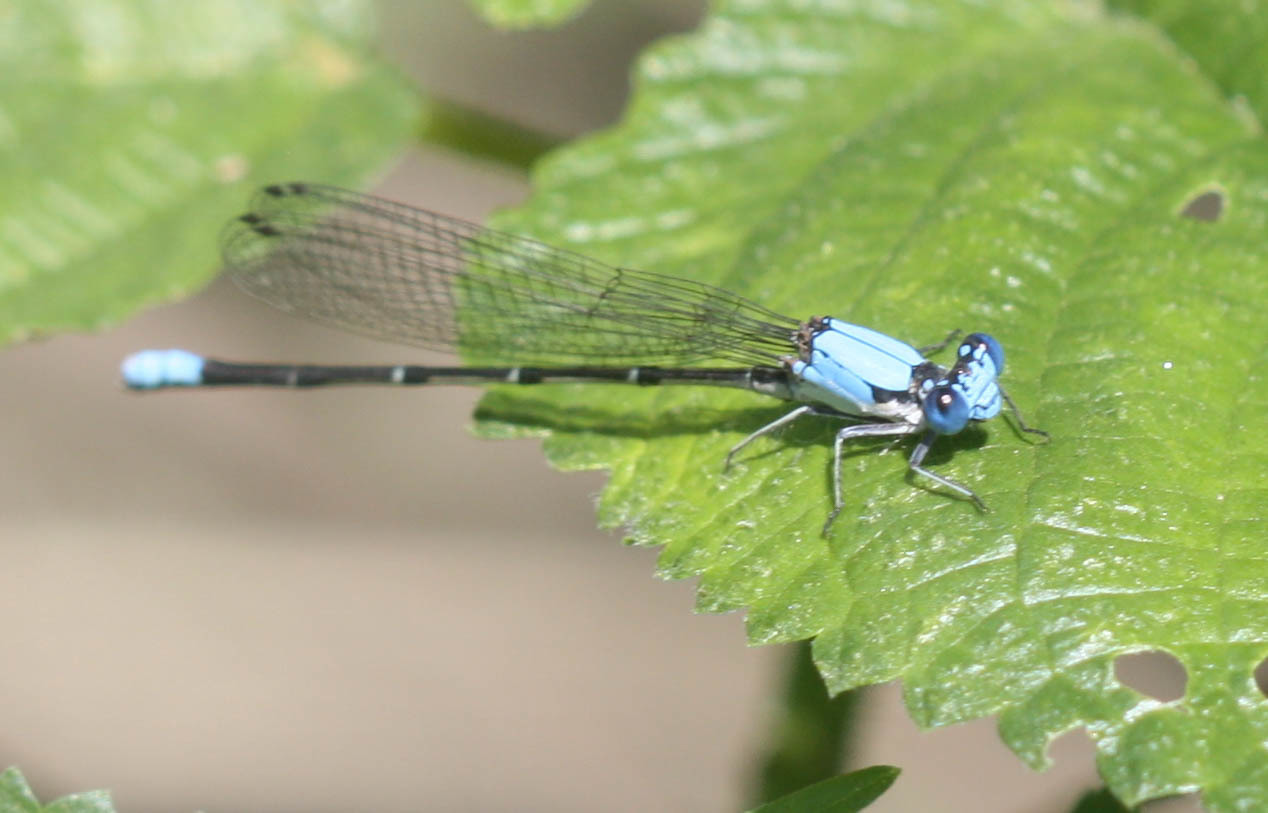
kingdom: Animalia
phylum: Arthropoda
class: Insecta
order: Odonata
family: Coenagrionidae
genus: Argia
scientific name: Argia apicalis
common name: Blue-fronted dancer
